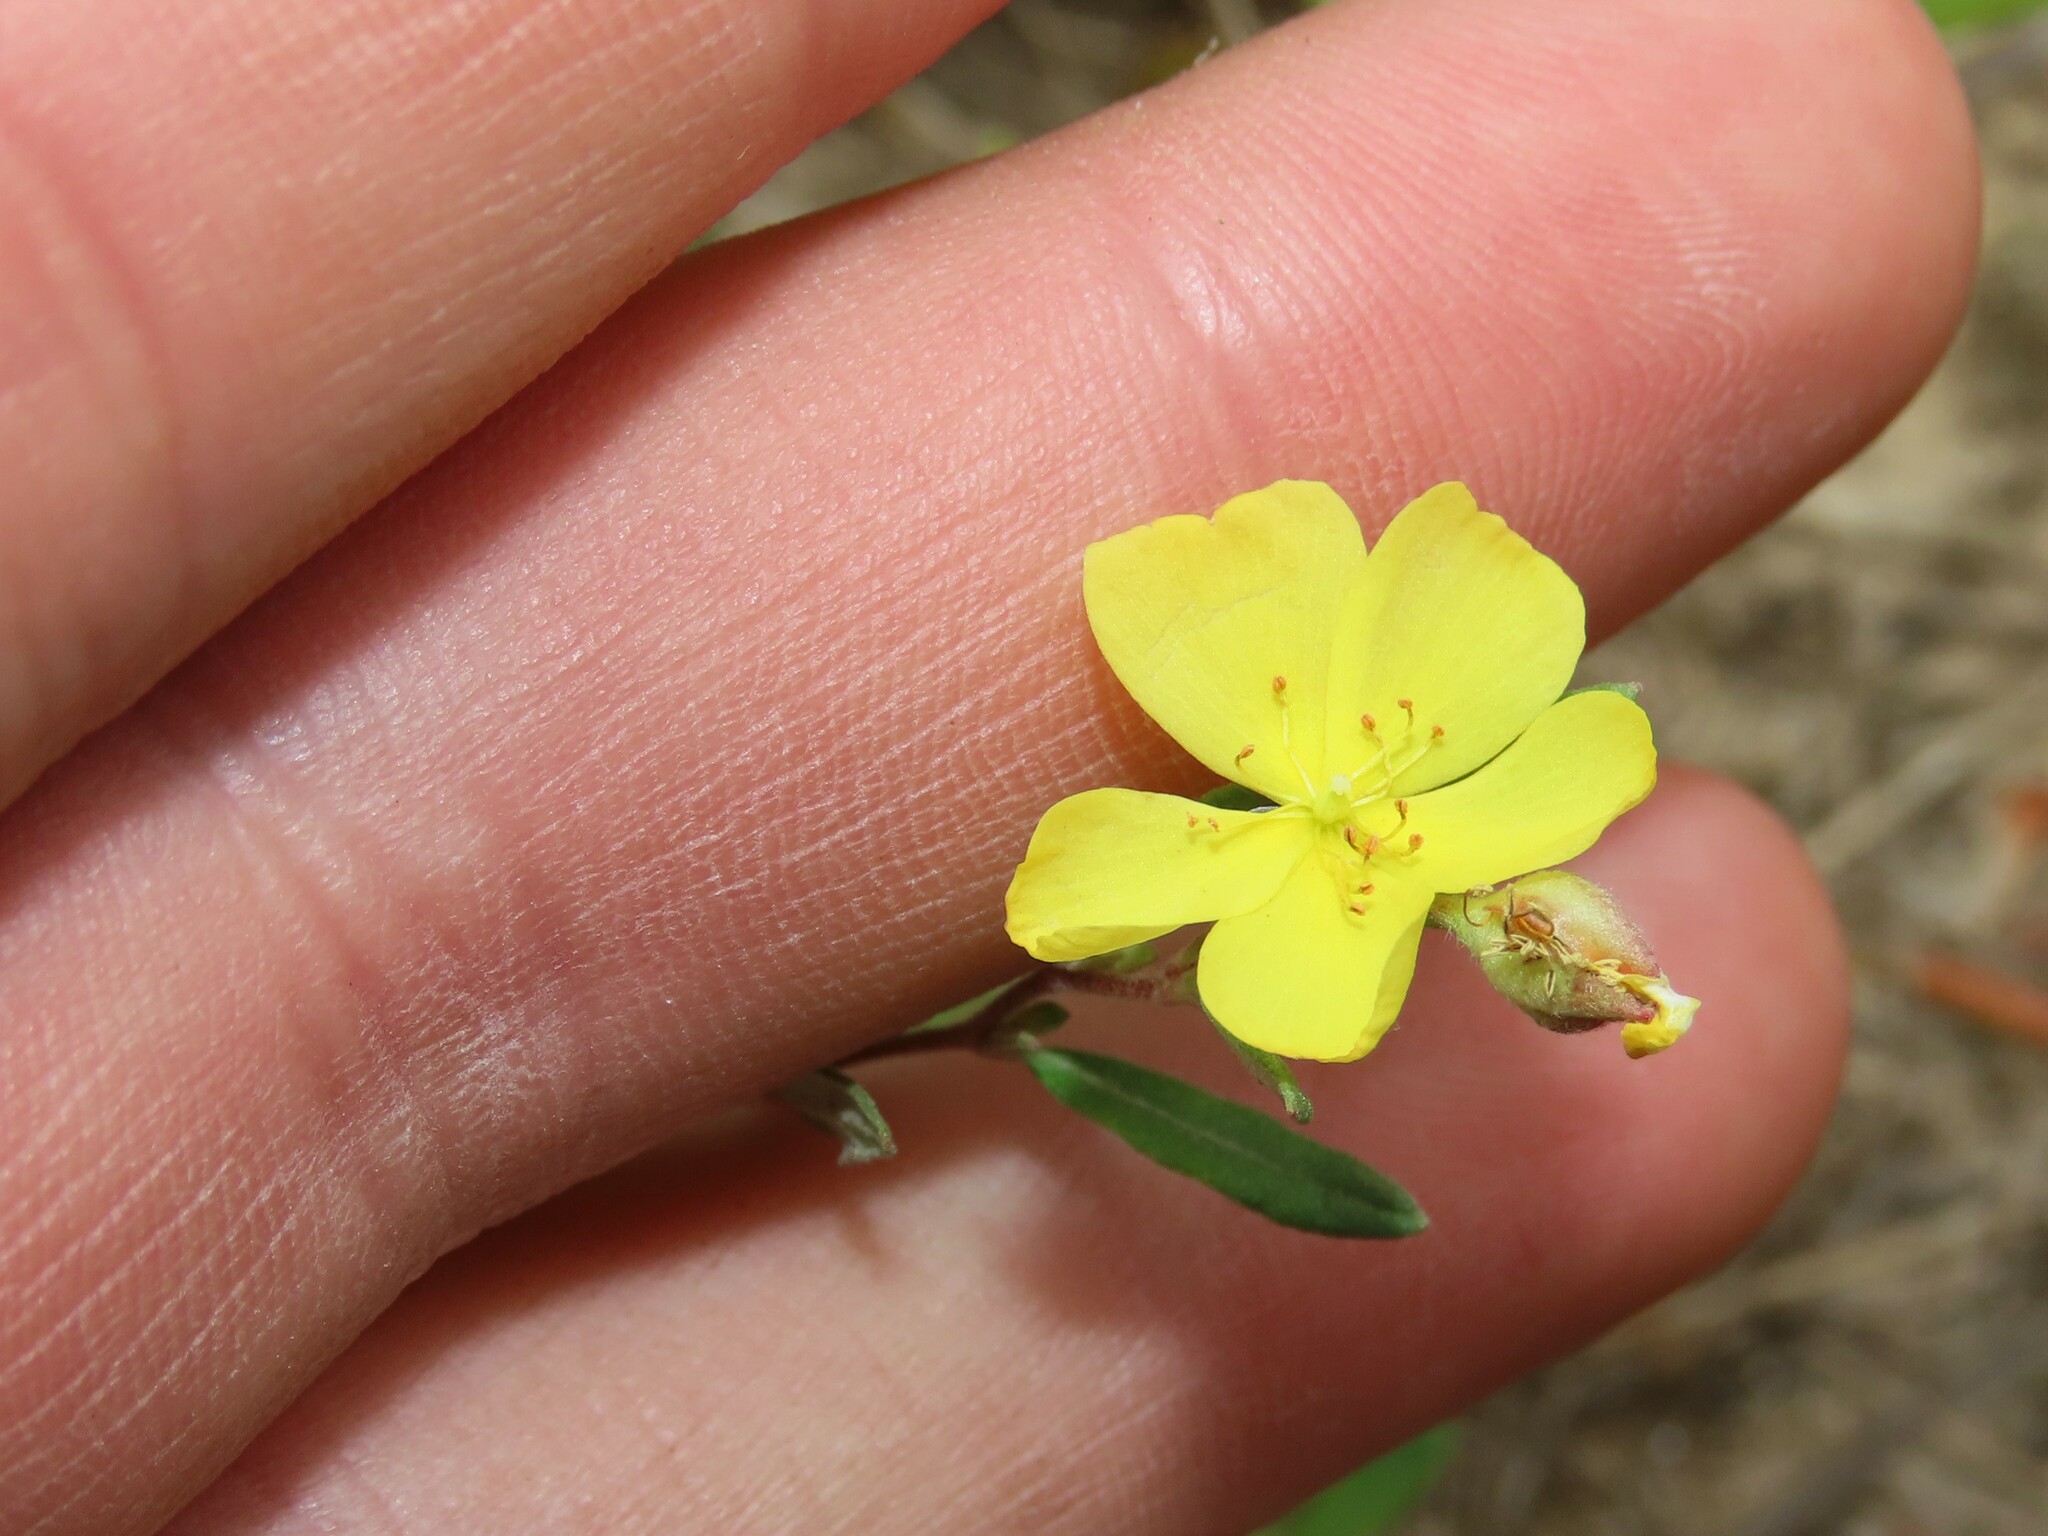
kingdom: Plantae
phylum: Tracheophyta
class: Magnoliopsida
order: Malvales
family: Cistaceae
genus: Crocanthemum
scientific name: Crocanthemum canadense
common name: Canada frostweed
